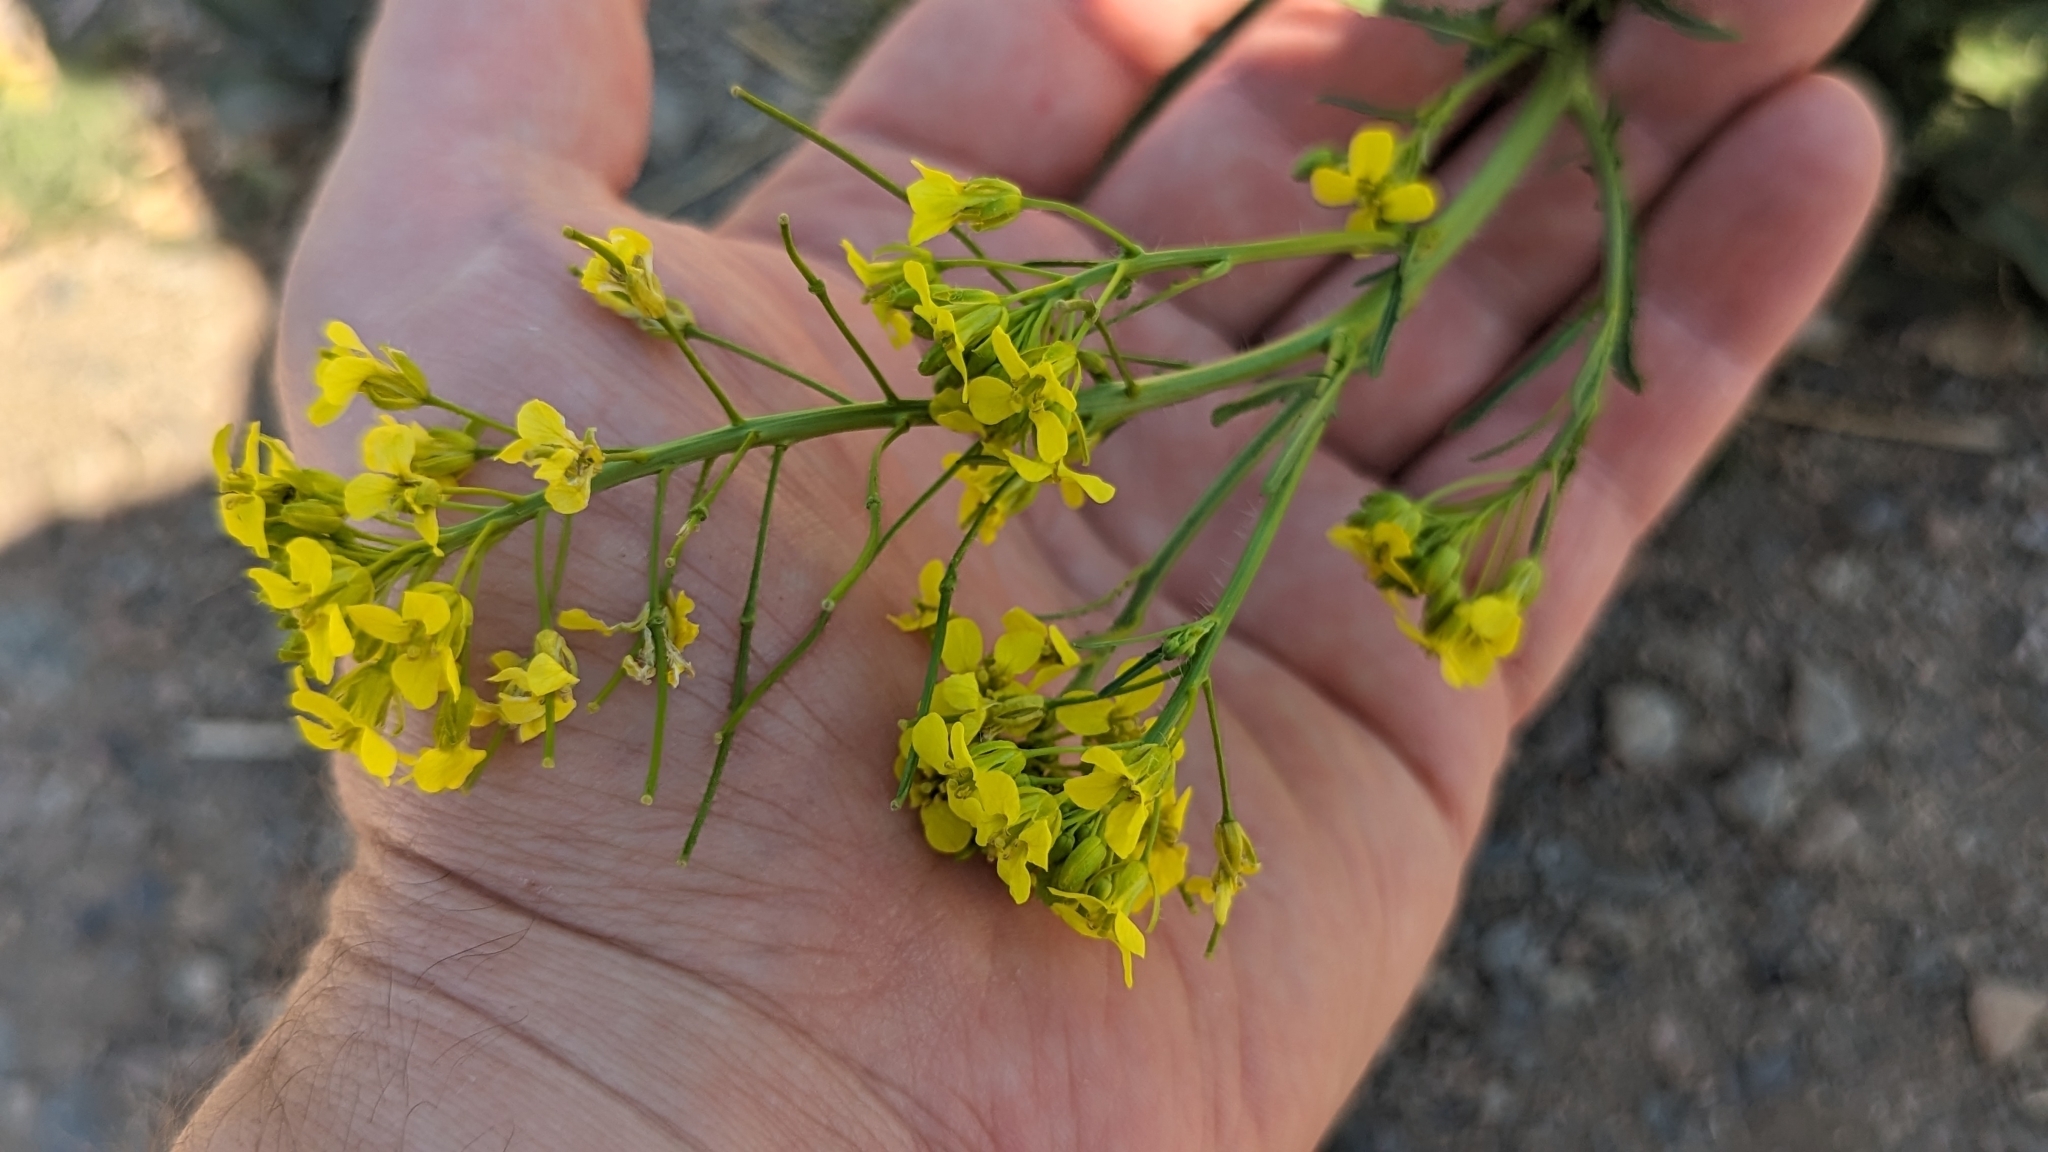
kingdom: Plantae
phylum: Tracheophyta
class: Magnoliopsida
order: Brassicales
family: Brassicaceae
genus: Sisymbrium
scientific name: Sisymbrium loeselii
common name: False london-rocket
